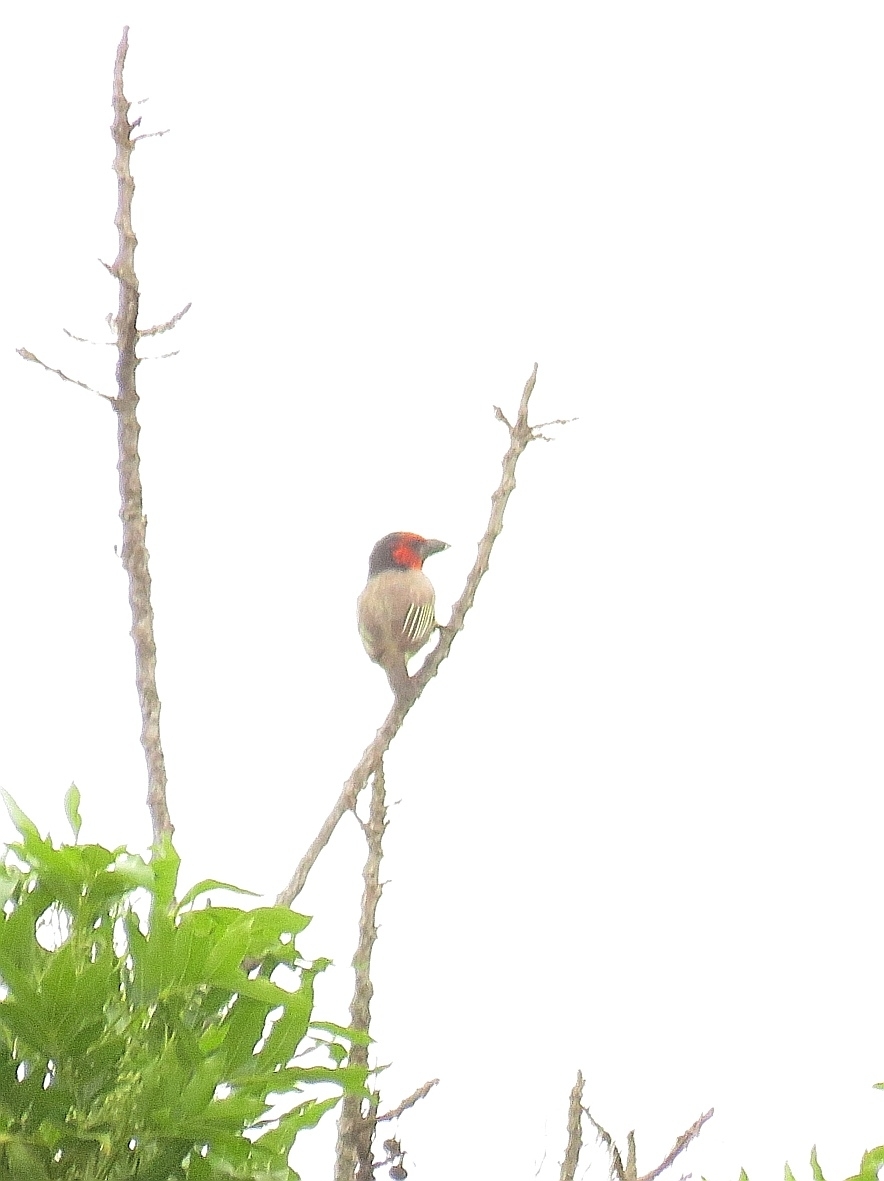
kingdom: Animalia
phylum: Chordata
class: Aves
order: Piciformes
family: Lybiidae
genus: Lybius
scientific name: Lybius torquatus
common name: Black-collared barbet
